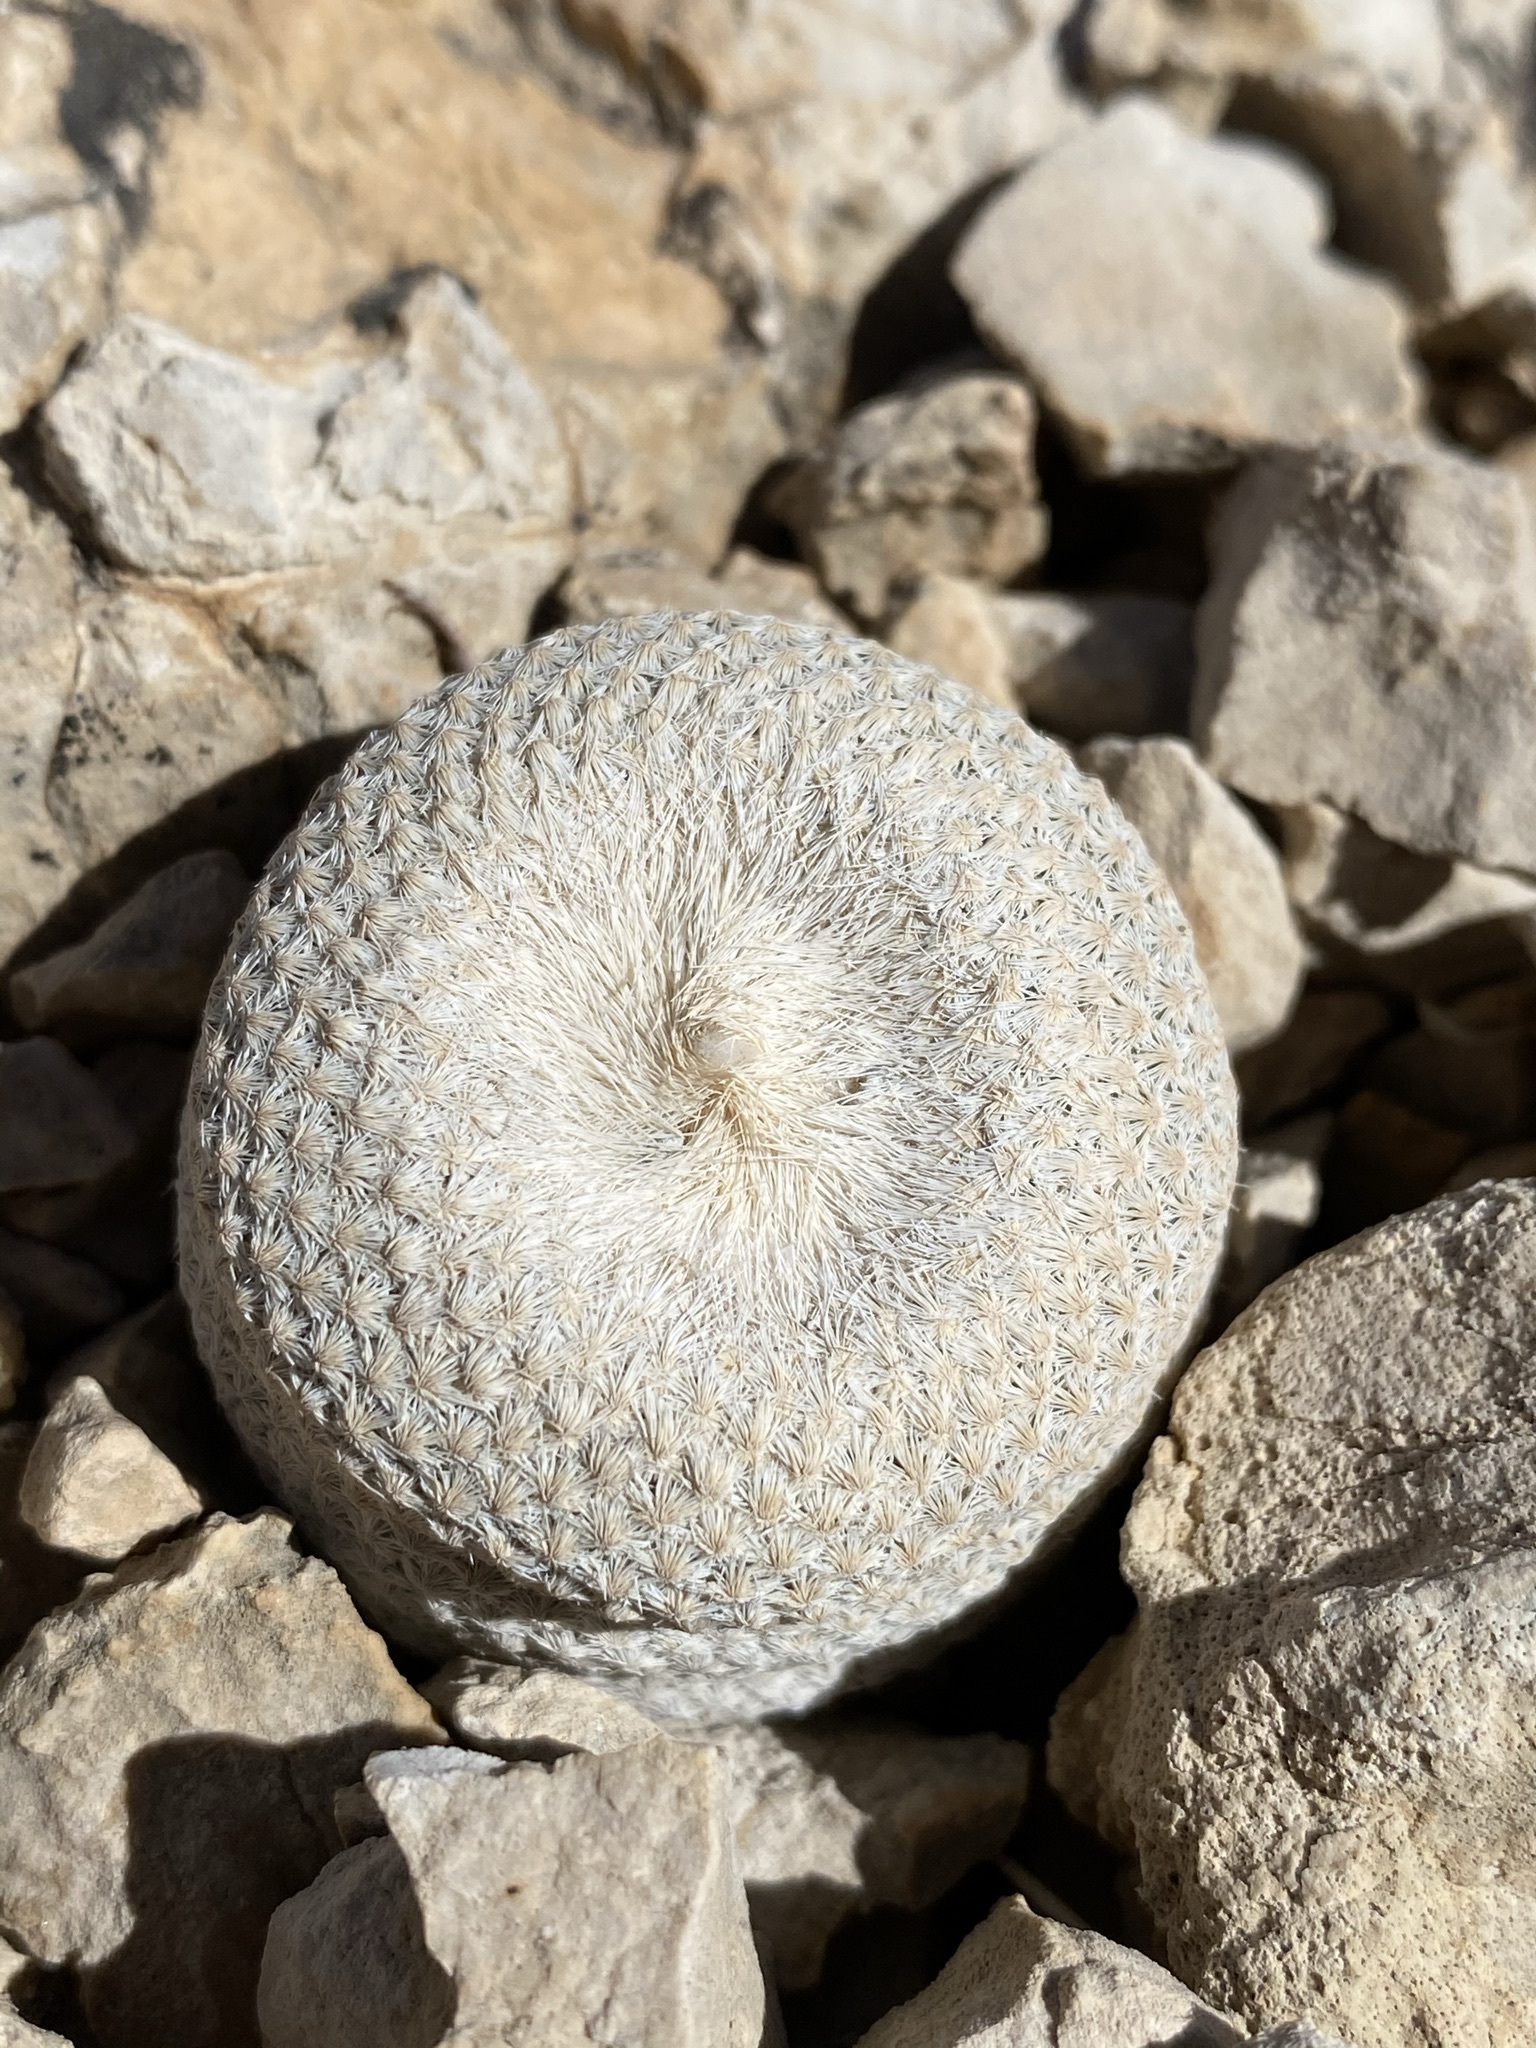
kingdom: Plantae
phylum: Tracheophyta
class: Magnoliopsida
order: Caryophyllales
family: Cactaceae
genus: Epithelantha
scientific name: Epithelantha bokei
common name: Boke's button cactus
